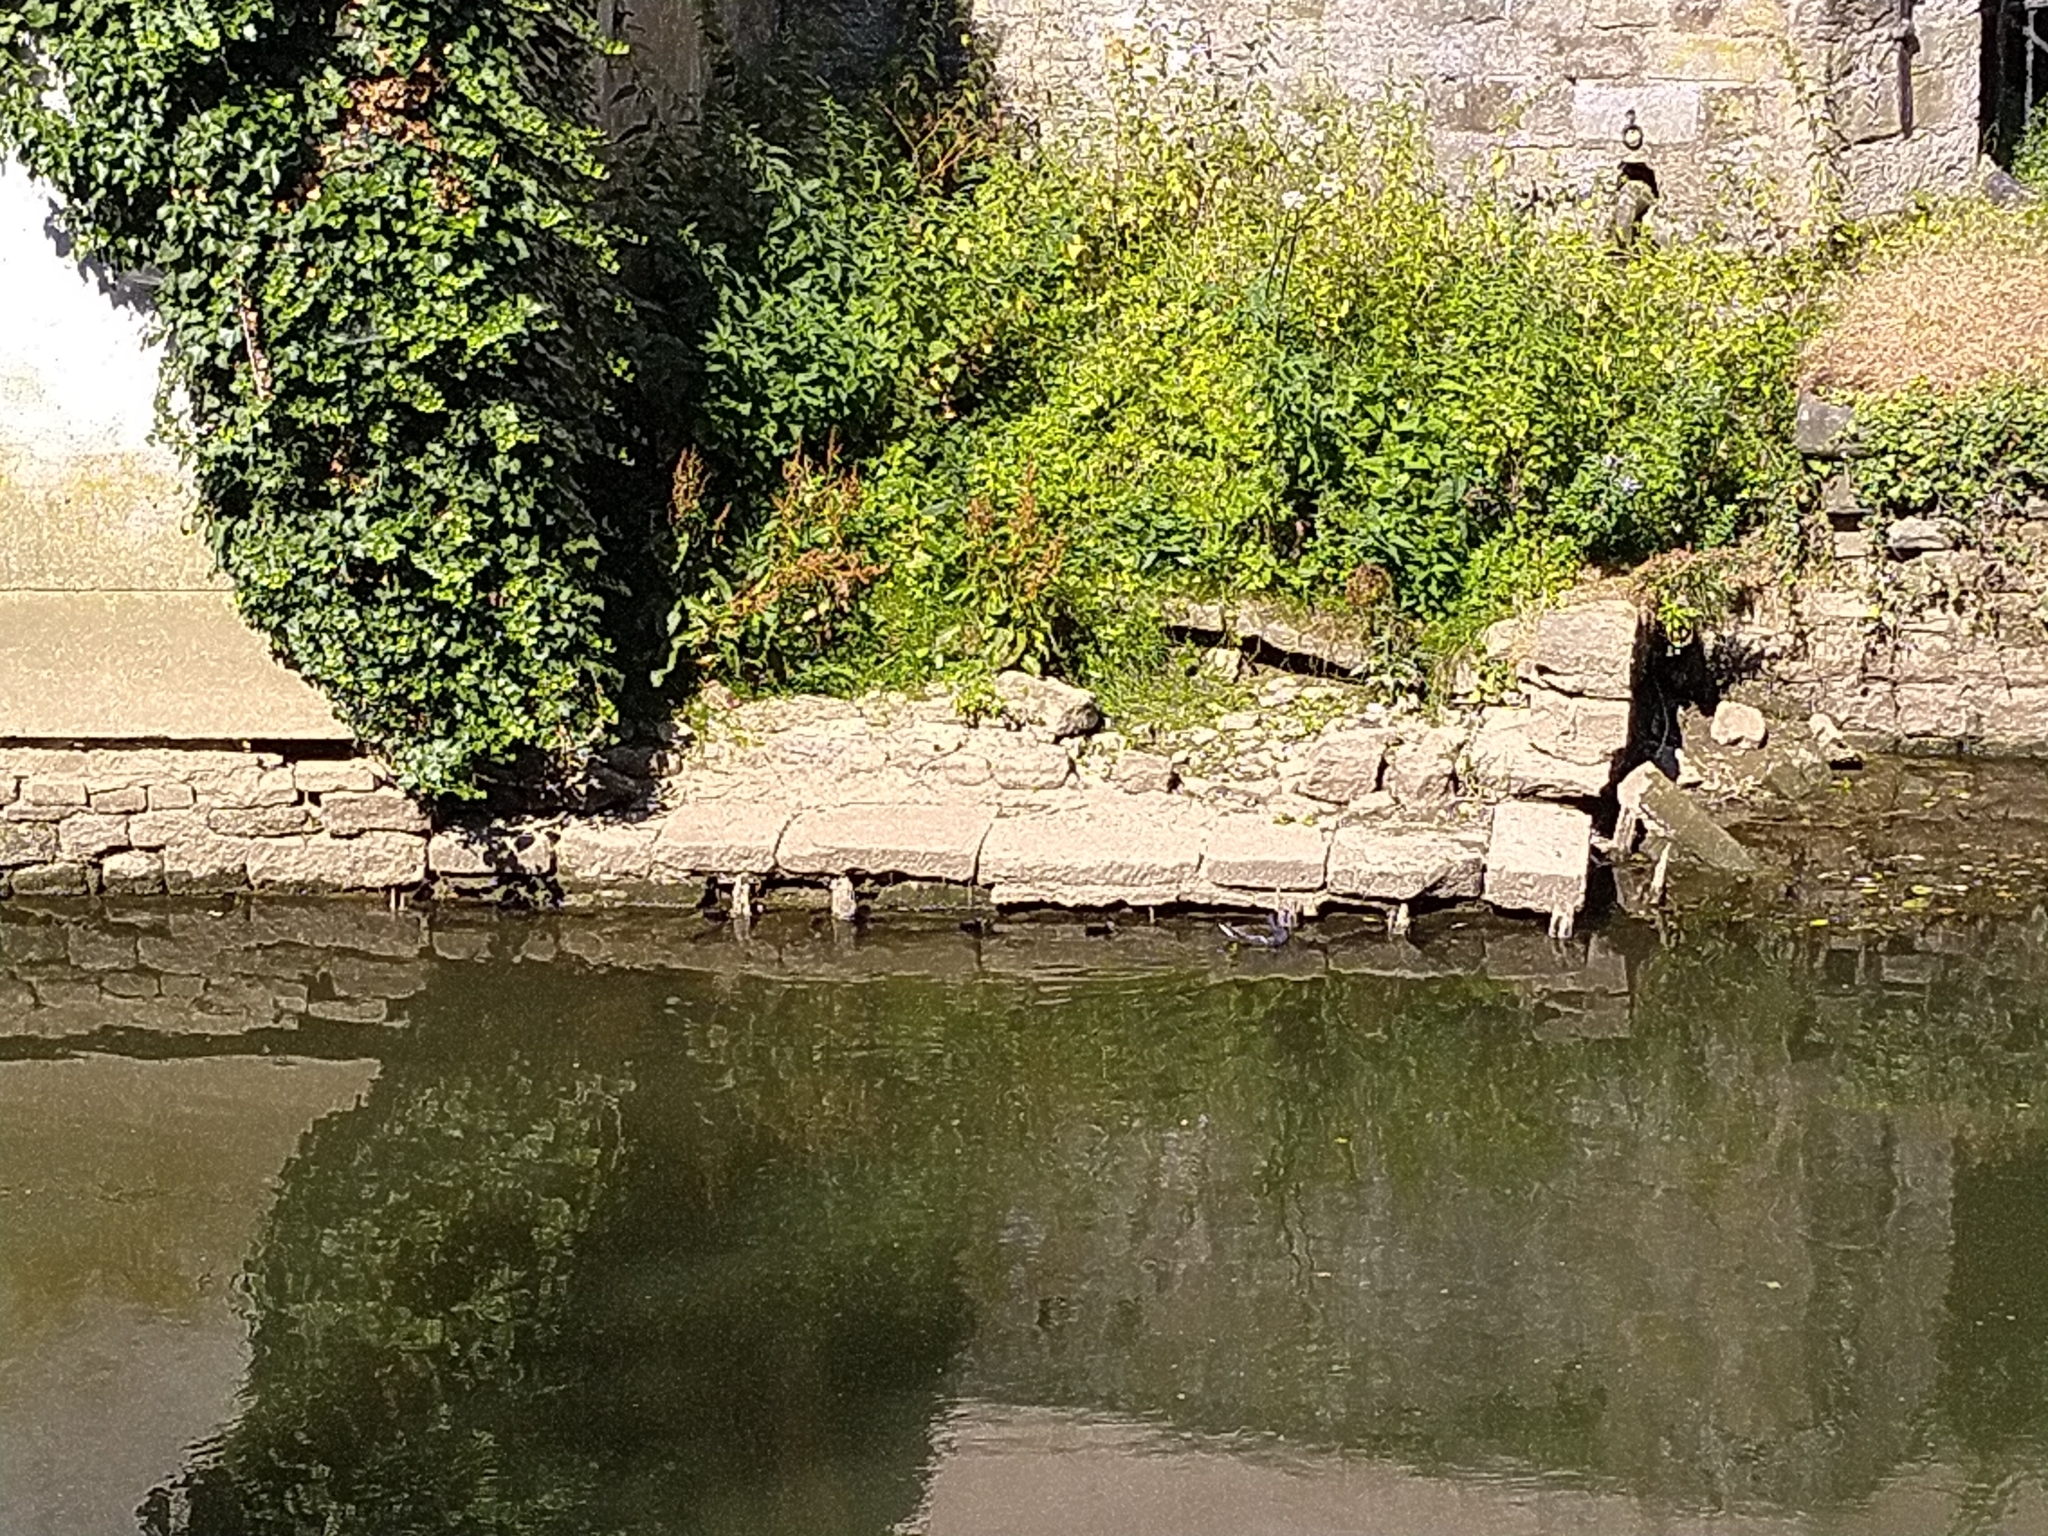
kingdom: Animalia
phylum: Chordata
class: Aves
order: Gruiformes
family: Rallidae
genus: Gallinula
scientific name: Gallinula chloropus
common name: Common moorhen
